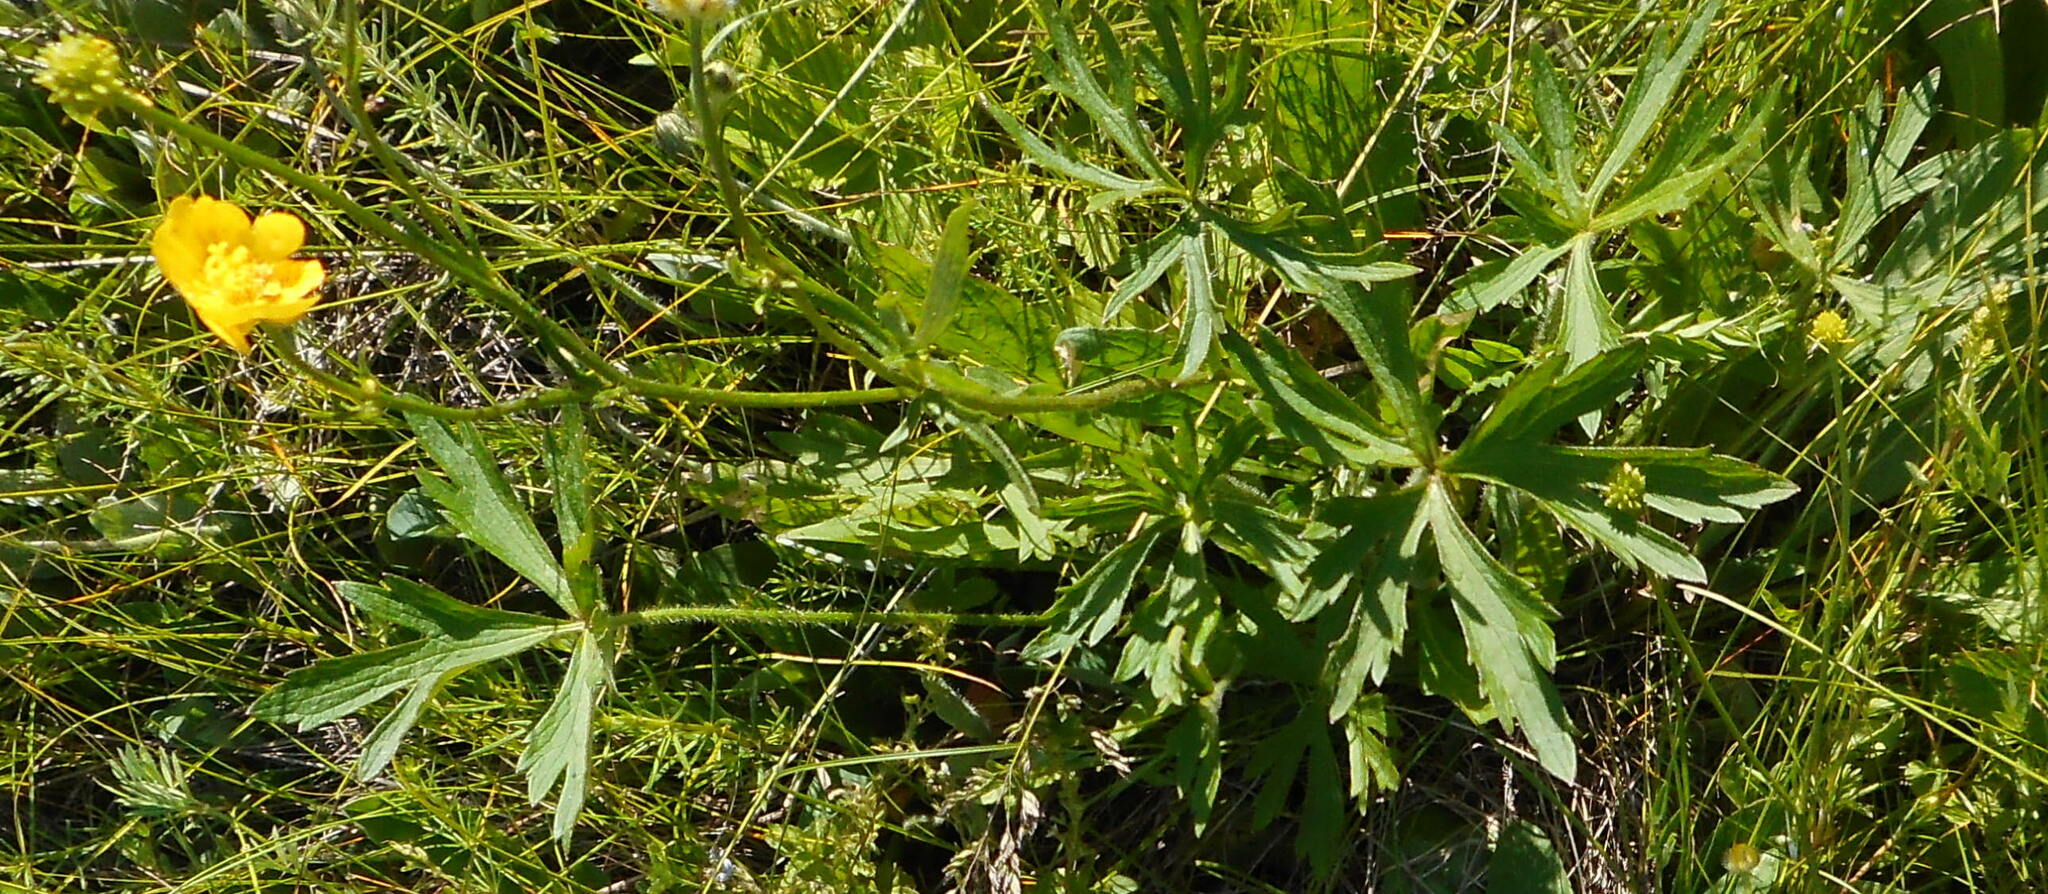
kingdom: Plantae
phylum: Tracheophyta
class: Magnoliopsida
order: Ranunculales
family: Ranunculaceae
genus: Ranunculus
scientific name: Ranunculus polyanthemos
